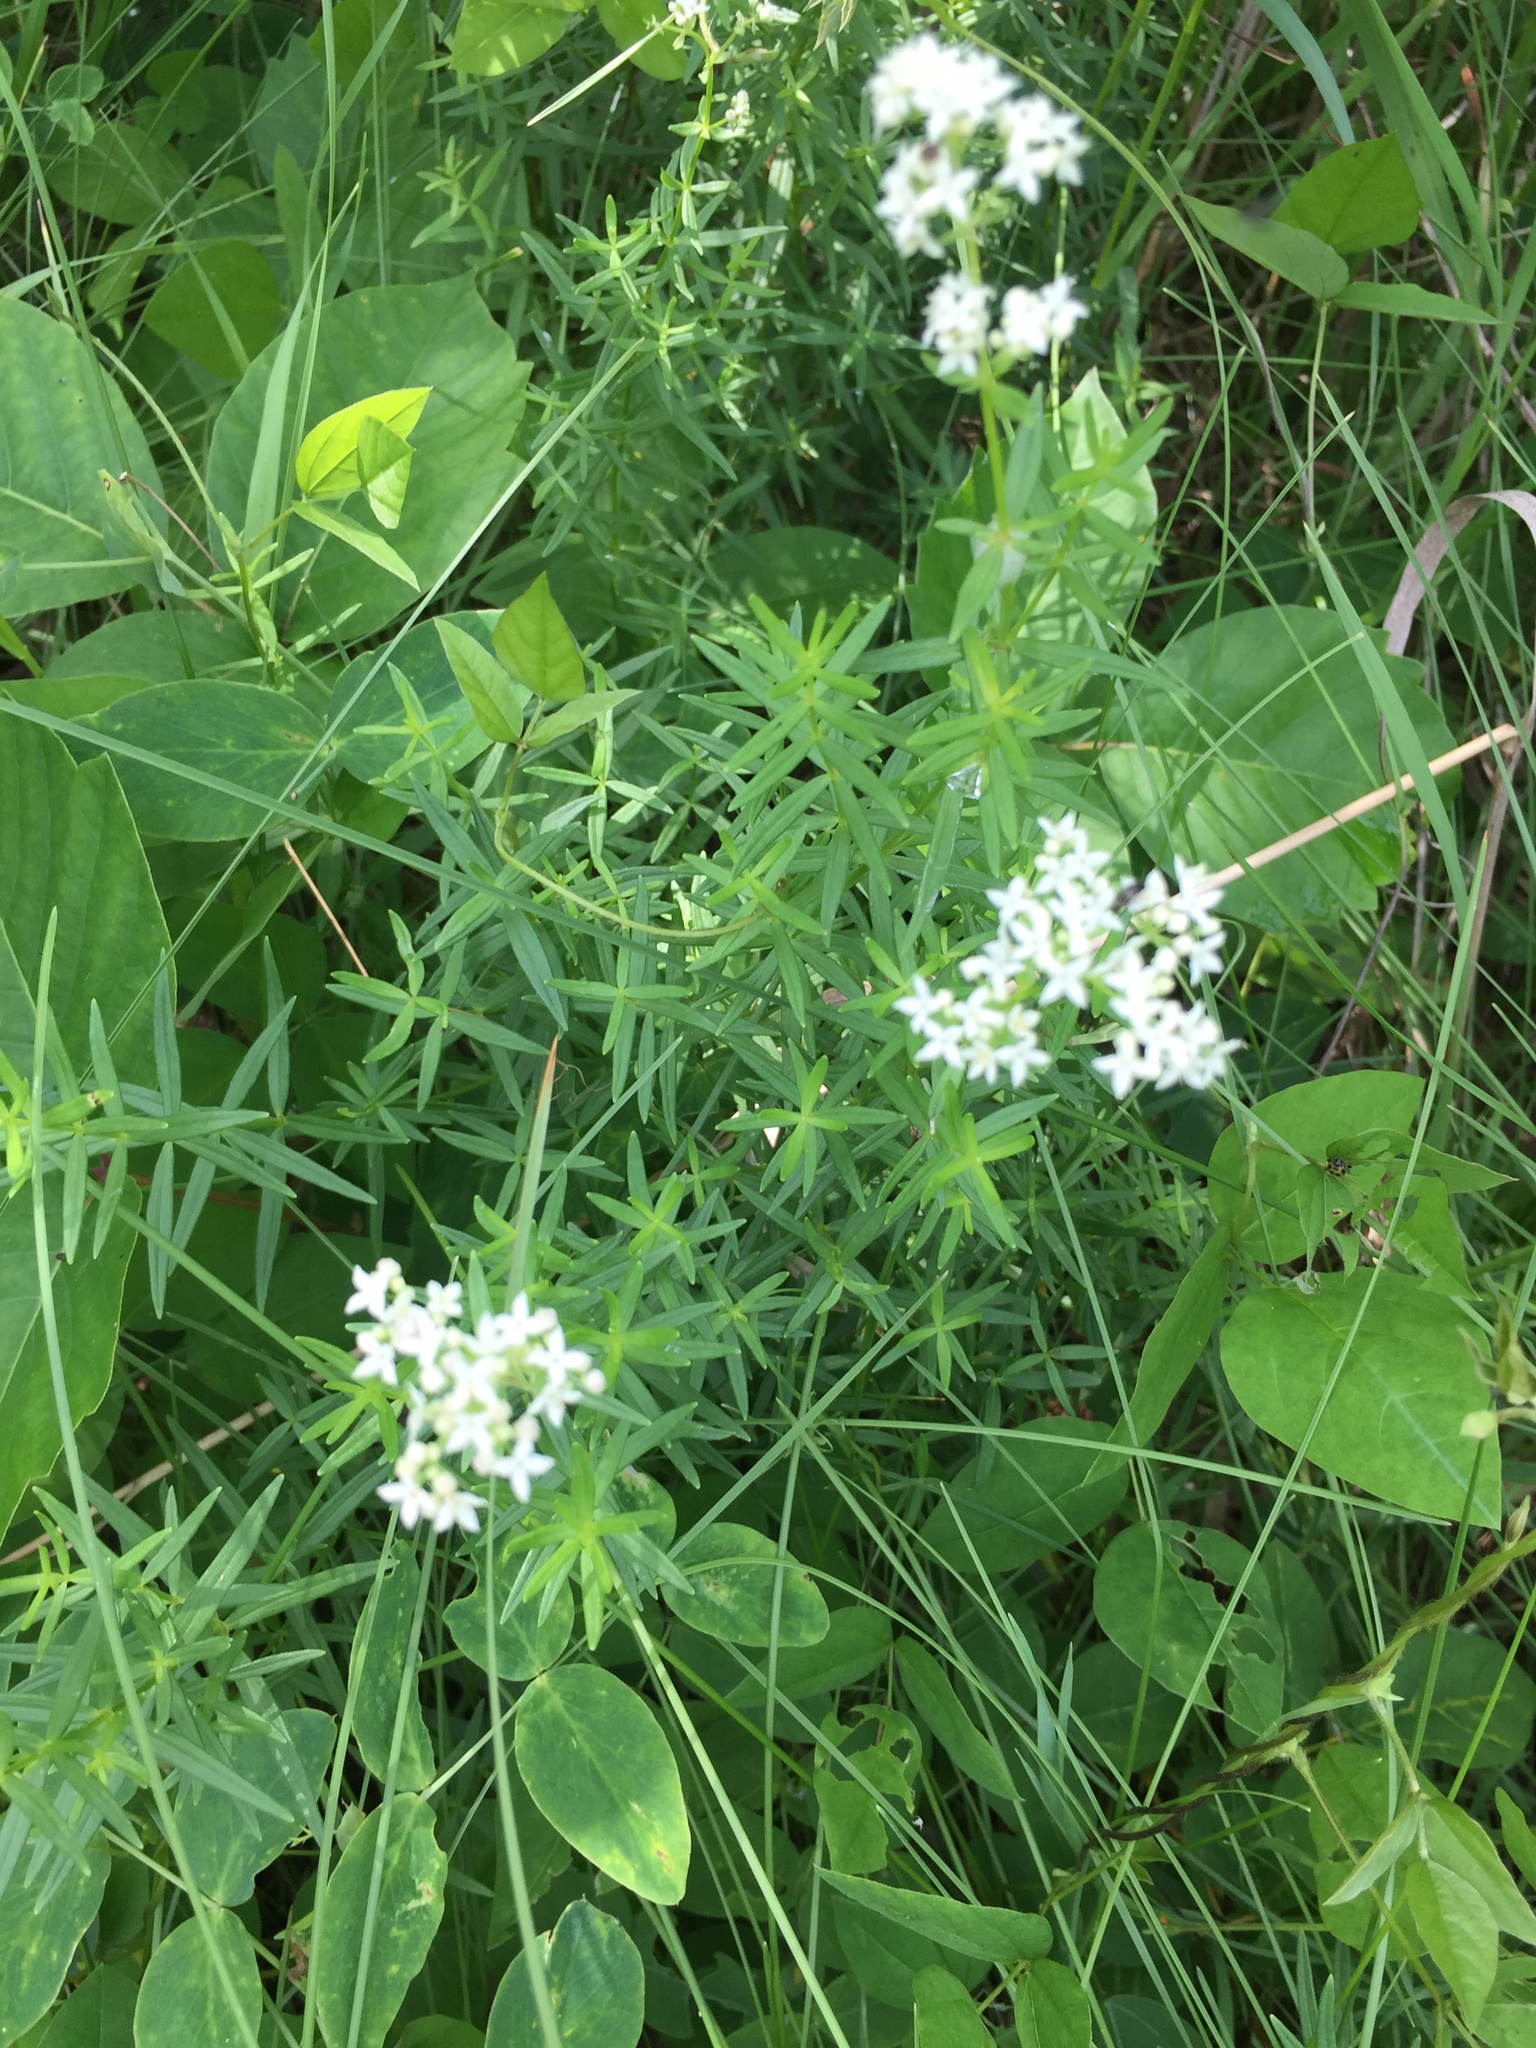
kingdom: Plantae
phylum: Tracheophyta
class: Magnoliopsida
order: Gentianales
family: Rubiaceae
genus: Galium
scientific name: Galium boreale
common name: Northern bedstraw
